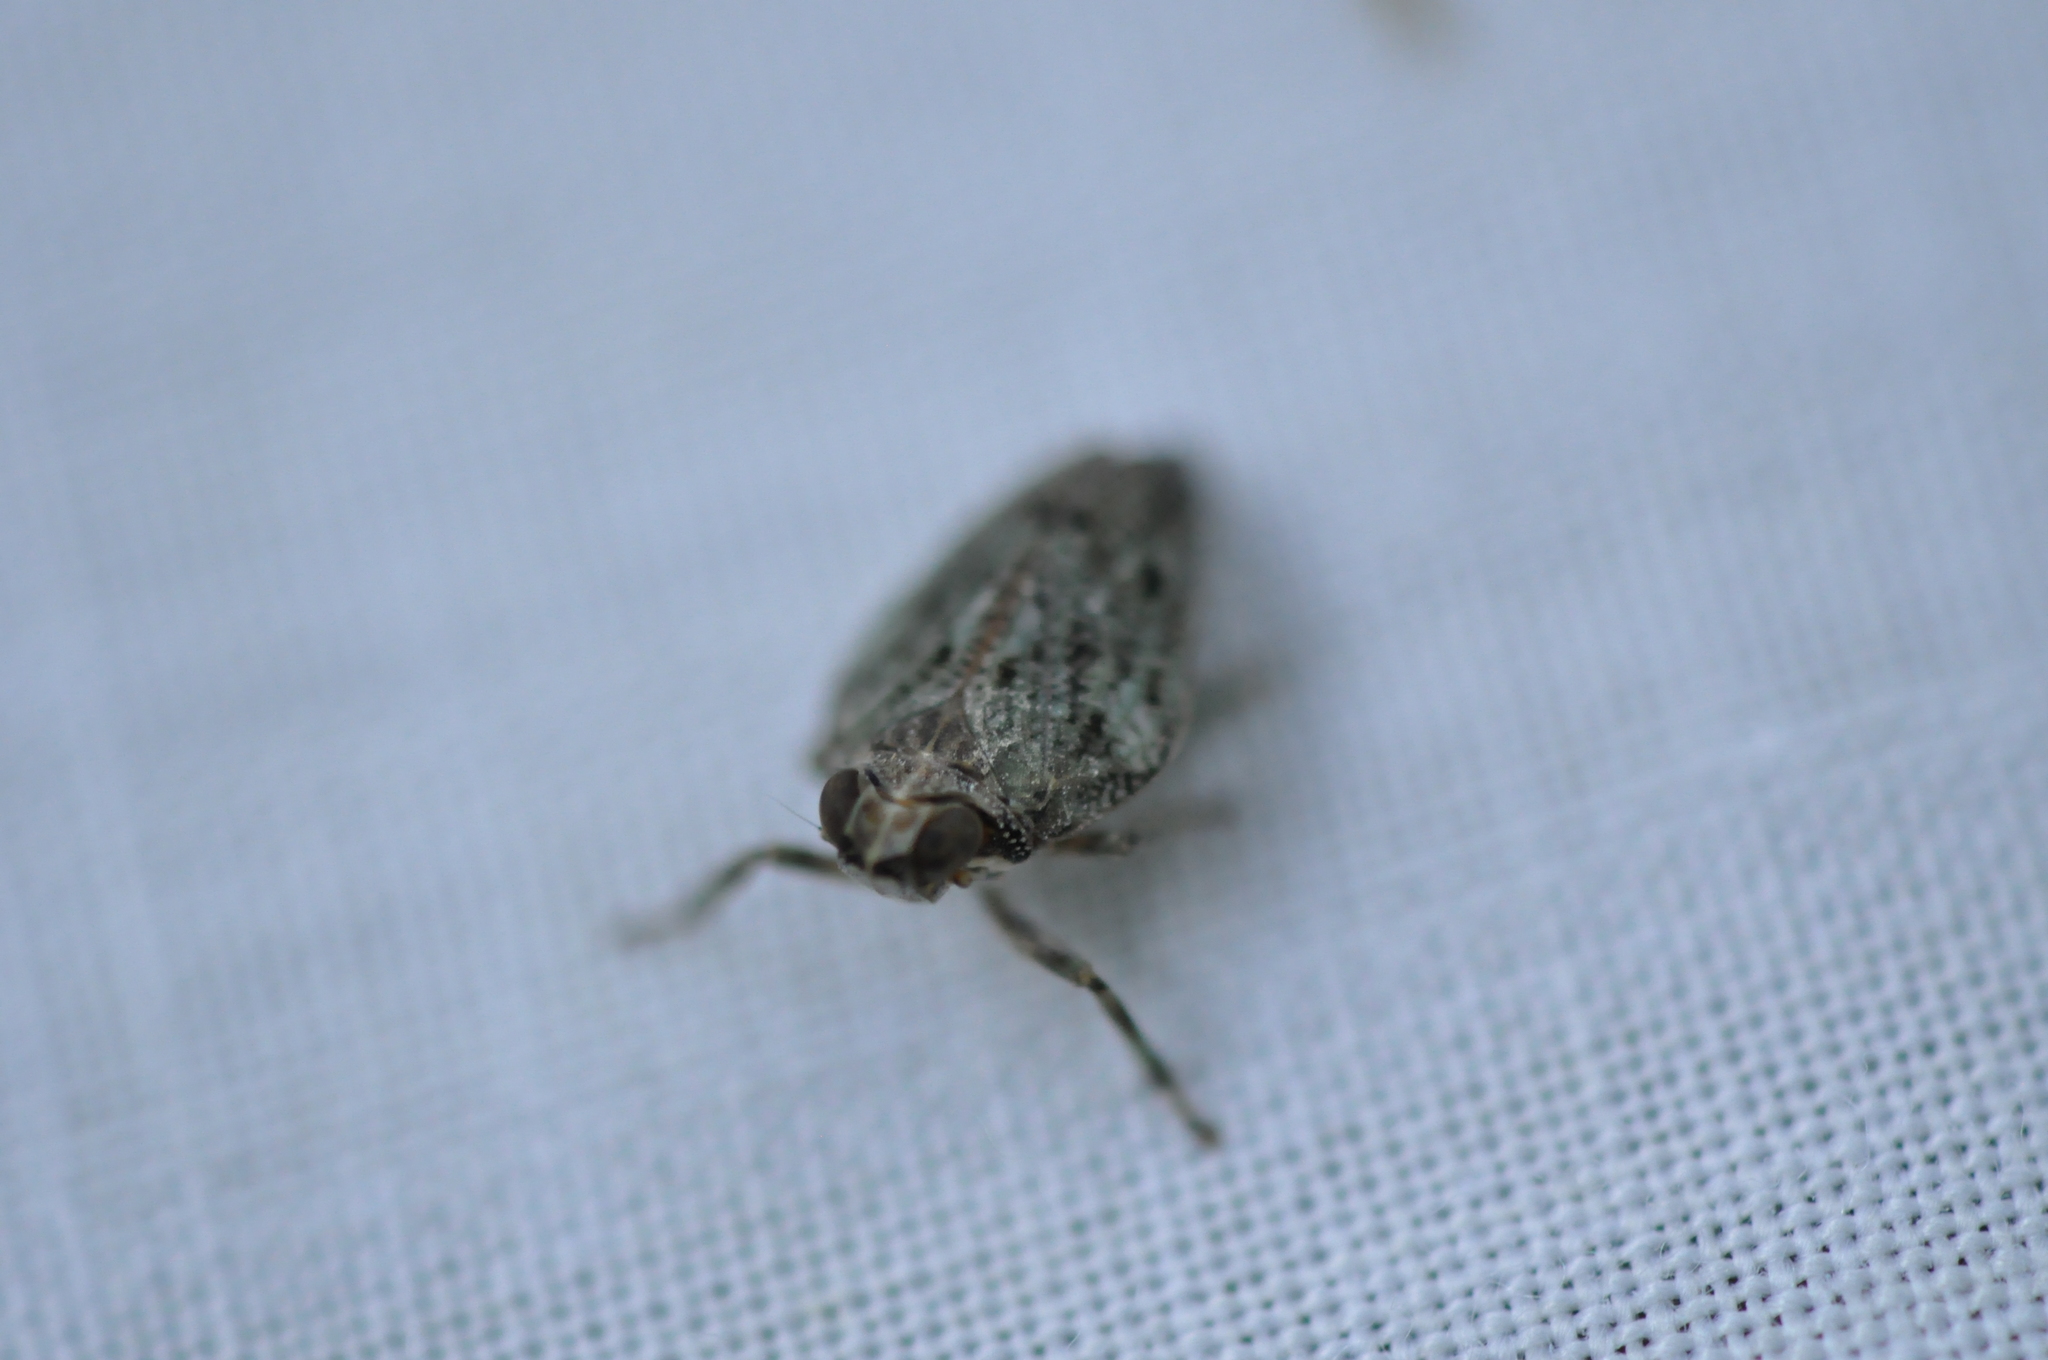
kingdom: Animalia
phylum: Arthropoda
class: Insecta
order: Hemiptera
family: Issidae
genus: Issus
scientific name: Issus coleoptratus
